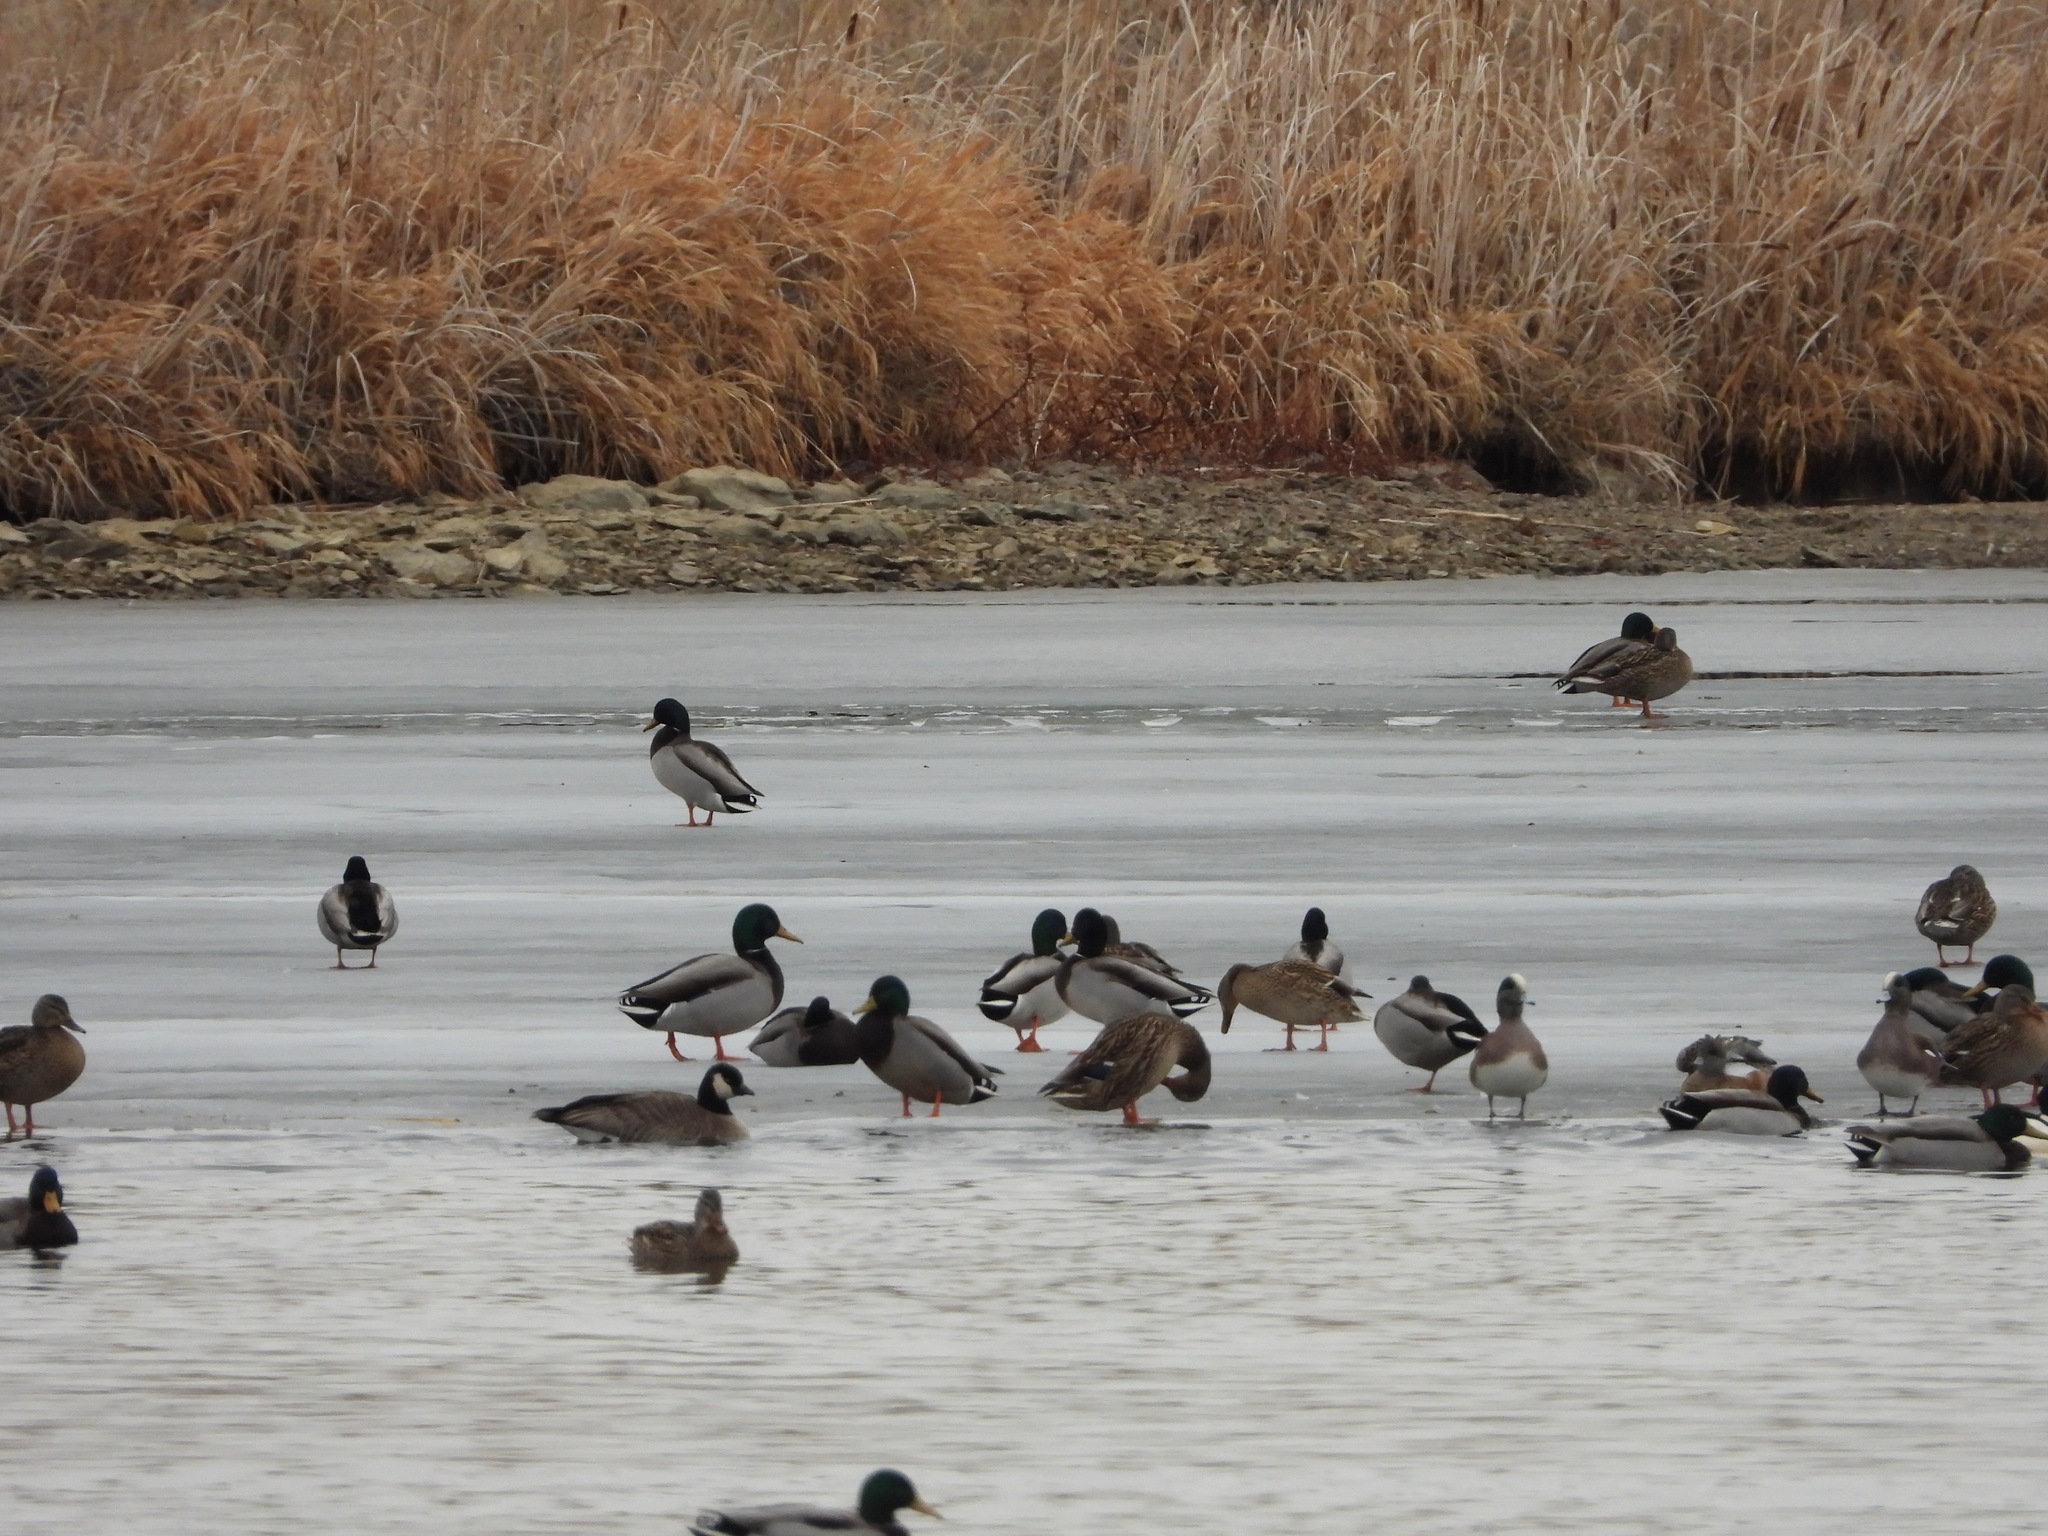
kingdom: Animalia
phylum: Chordata
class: Aves
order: Anseriformes
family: Anatidae
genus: Mareca
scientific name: Mareca americana
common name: American wigeon
